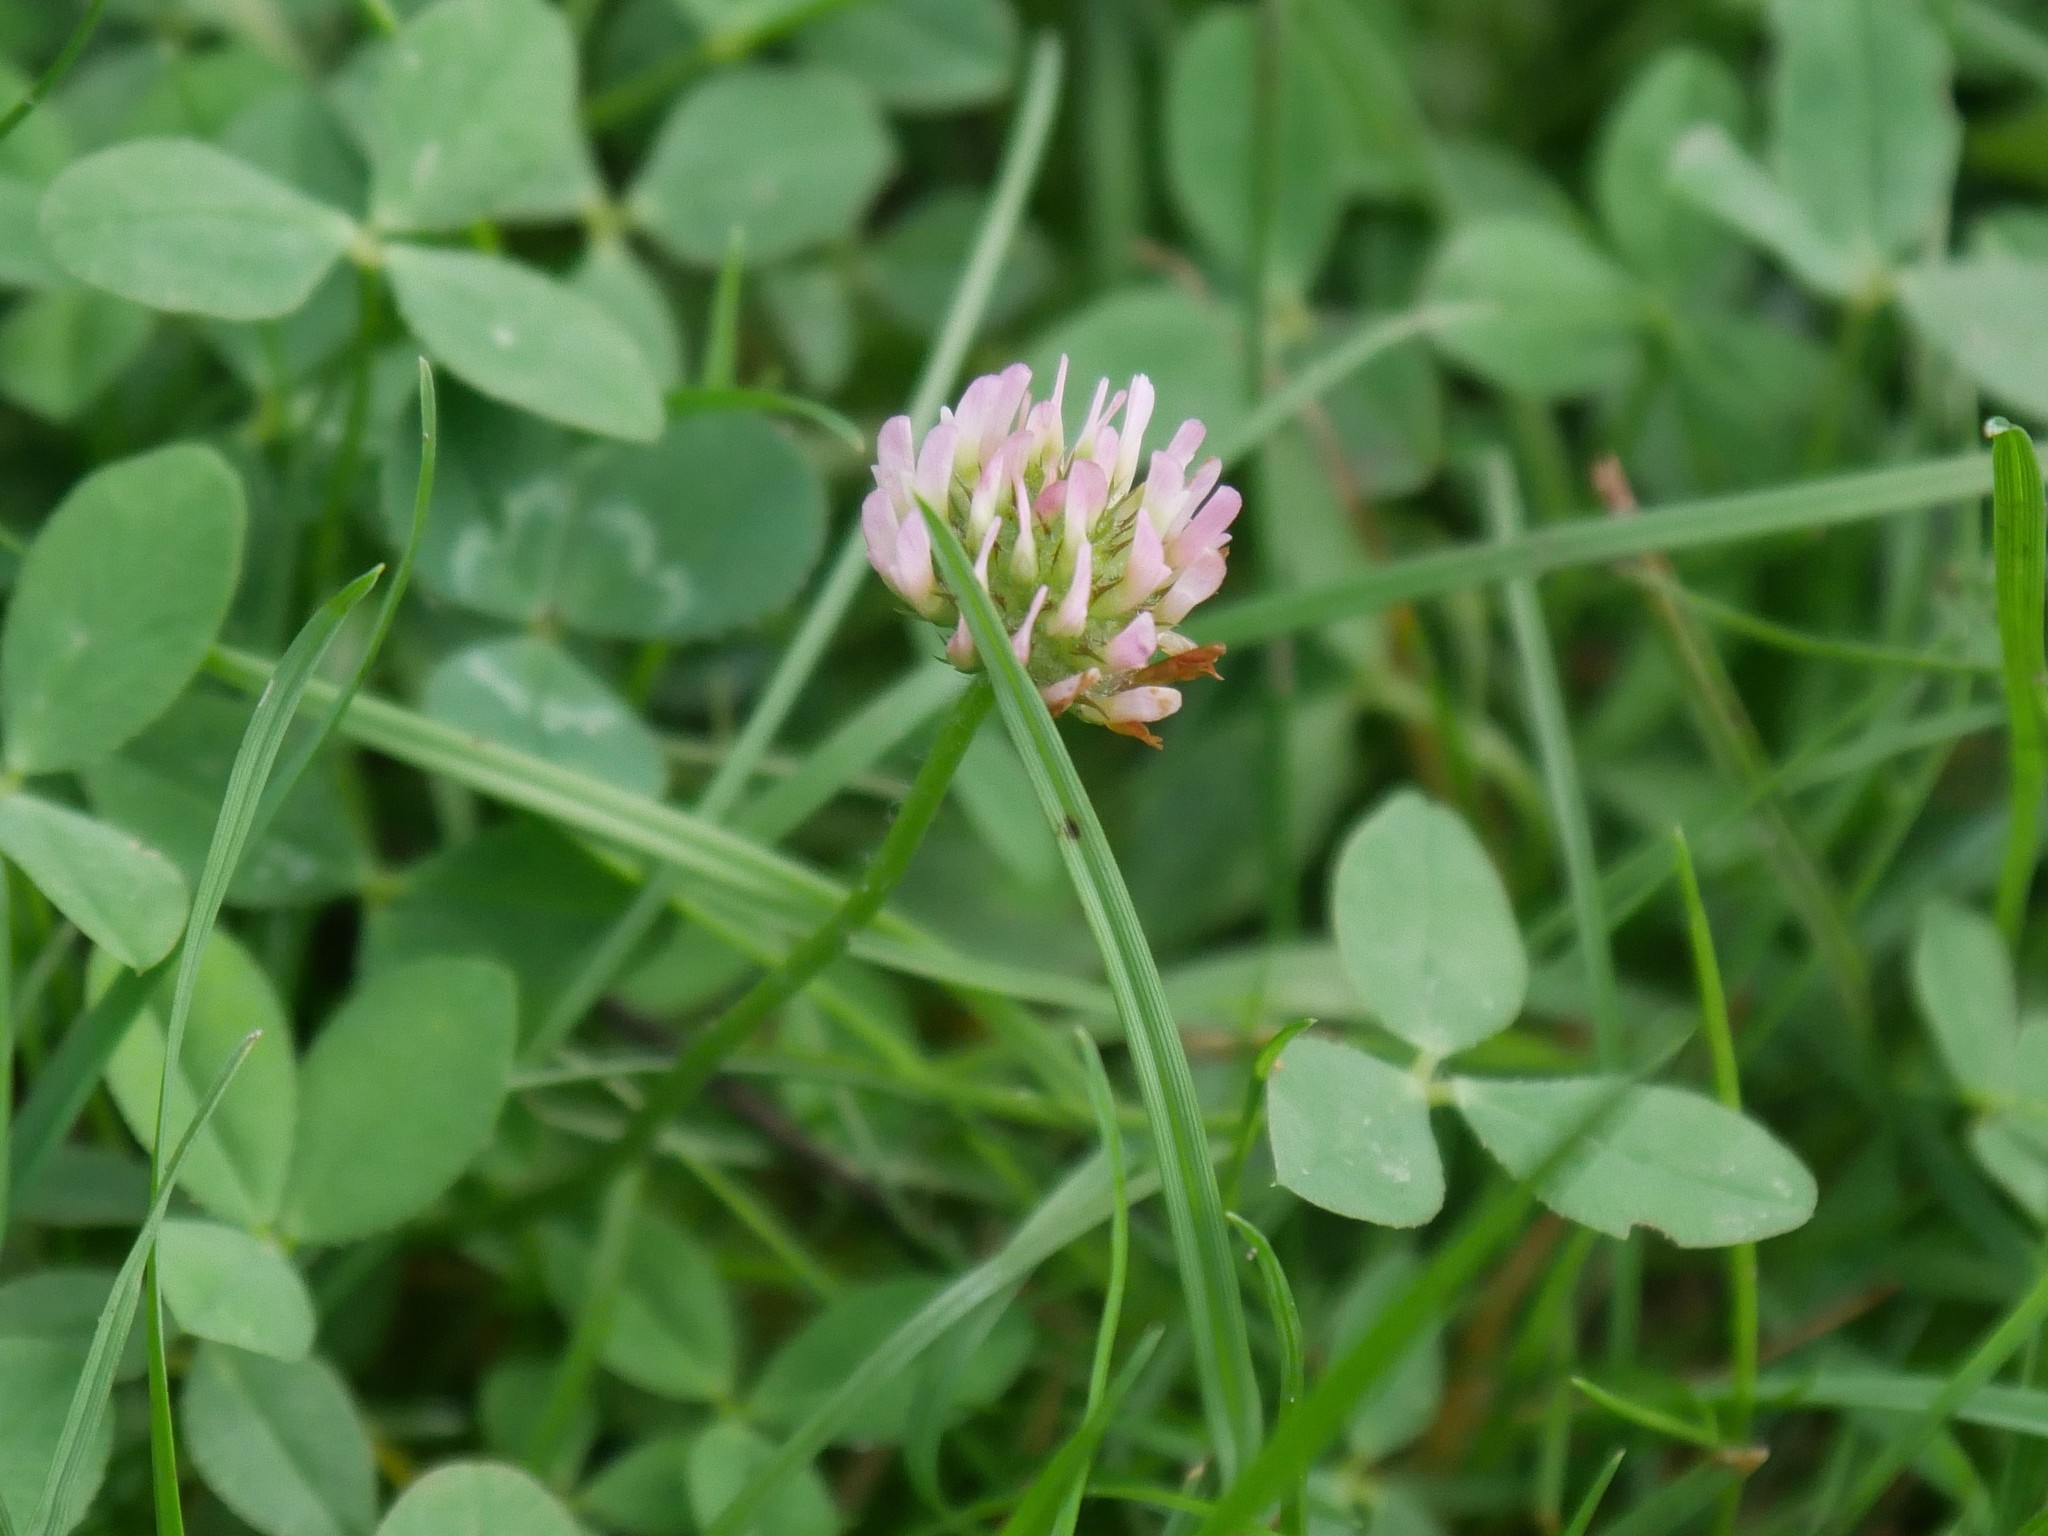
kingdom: Plantae
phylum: Tracheophyta
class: Magnoliopsida
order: Fabales
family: Fabaceae
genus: Trifolium
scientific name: Trifolium fragiferum
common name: Strawberry clover
